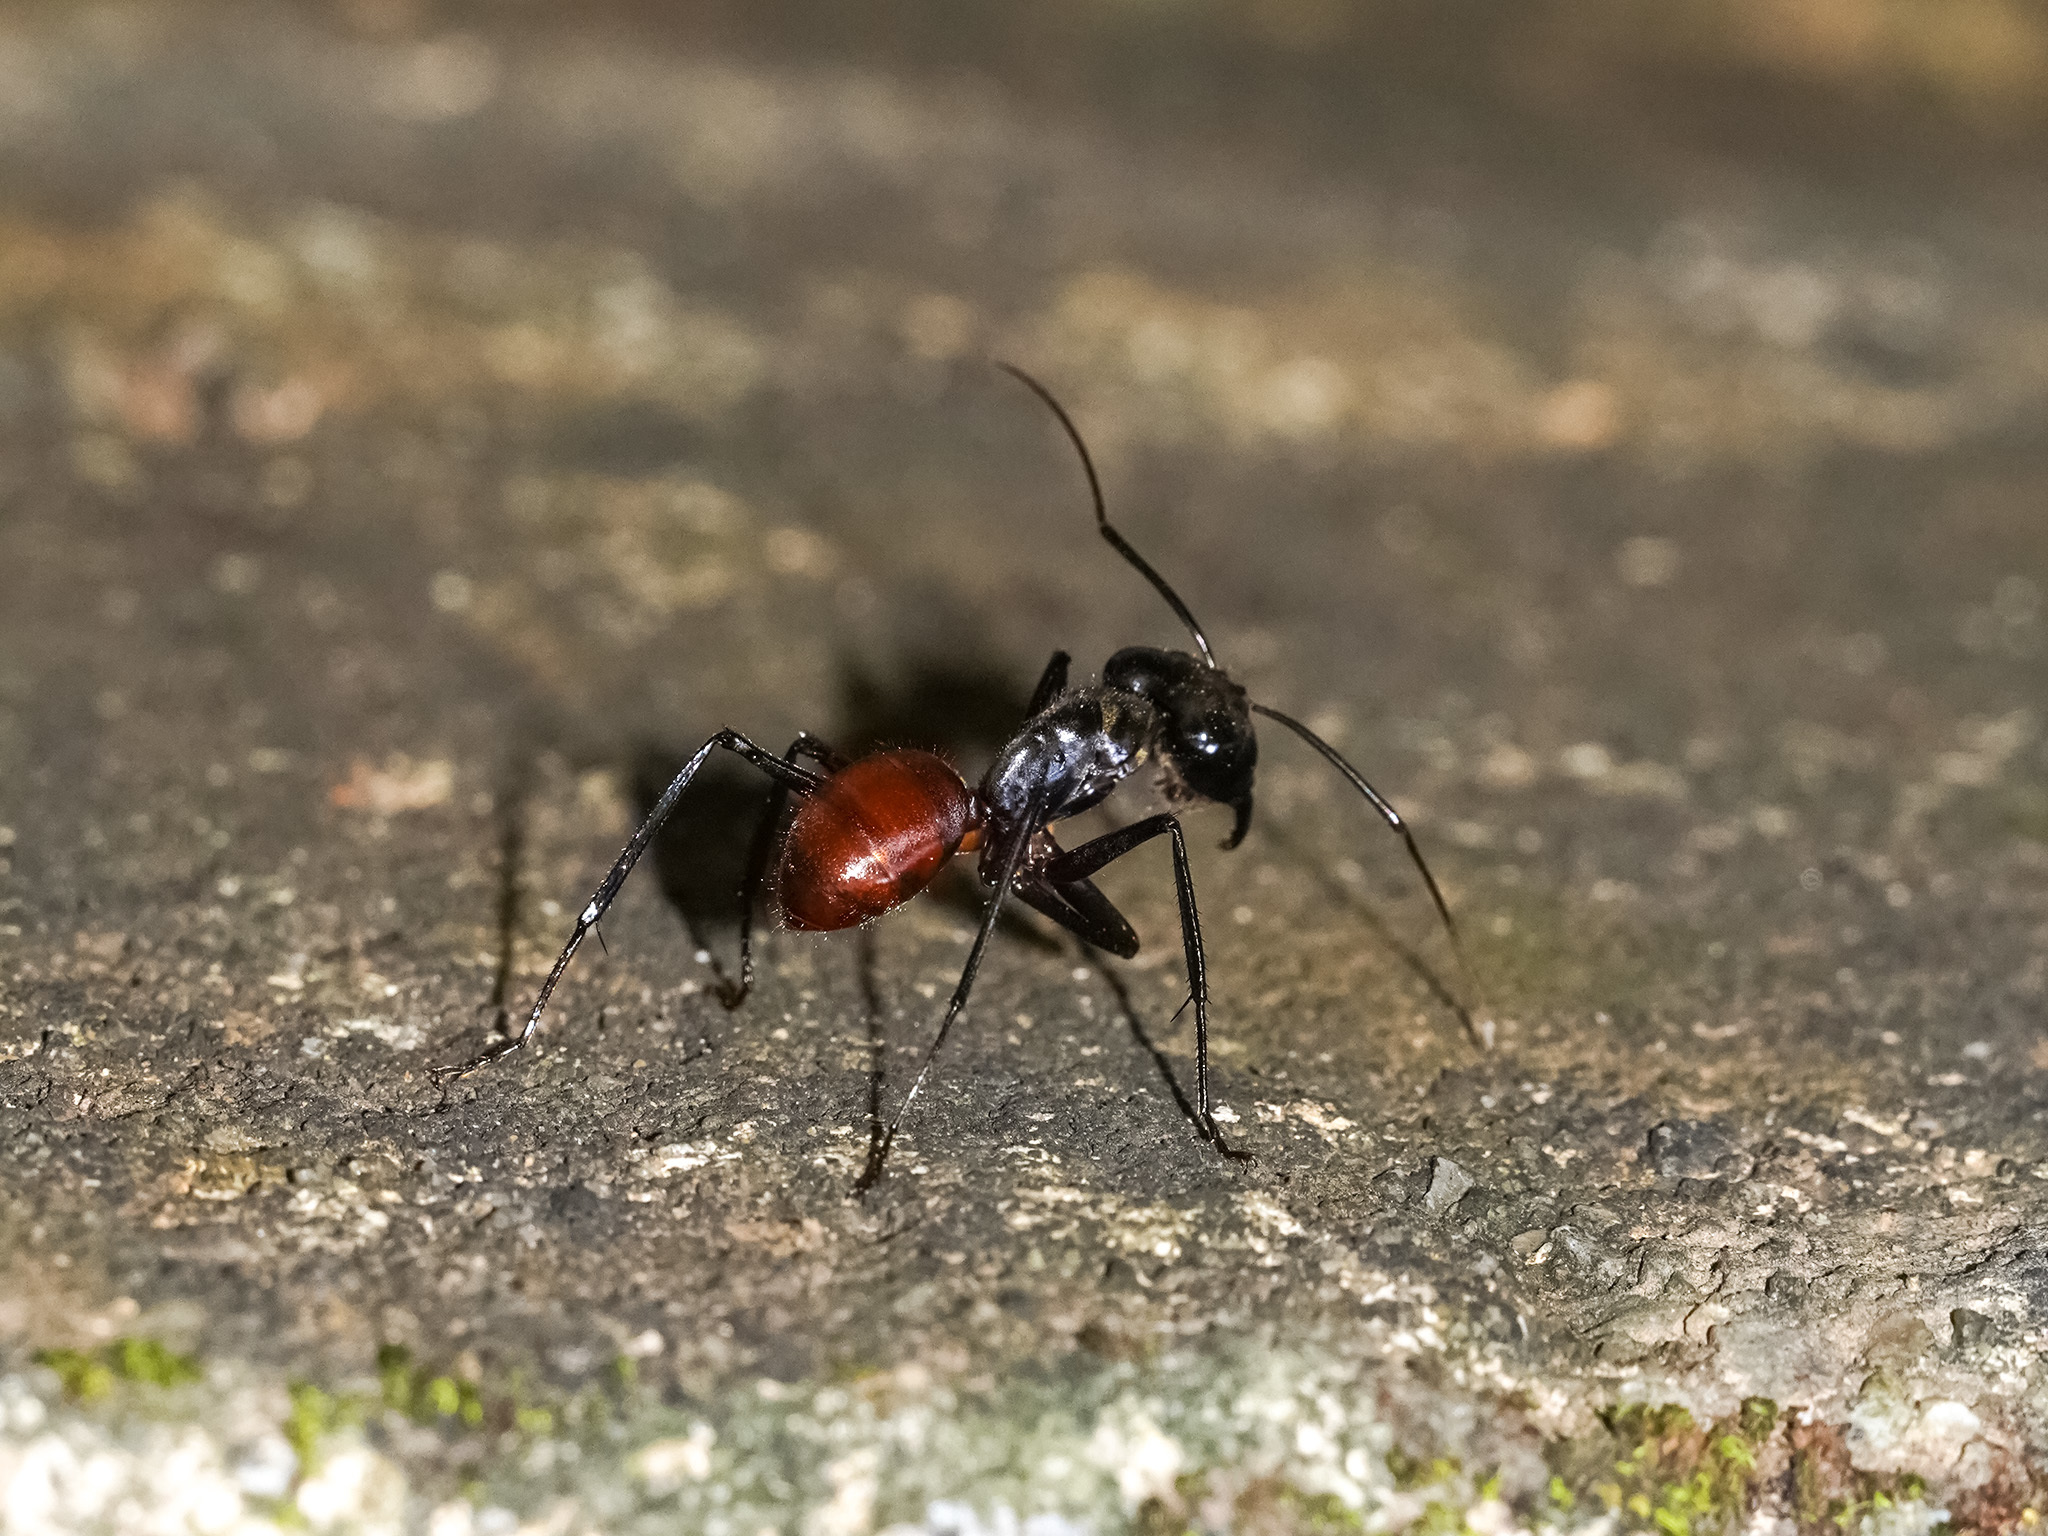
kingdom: Animalia
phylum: Arthropoda
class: Insecta
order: Hymenoptera
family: Formicidae
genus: Dinomyrmex
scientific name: Dinomyrmex
